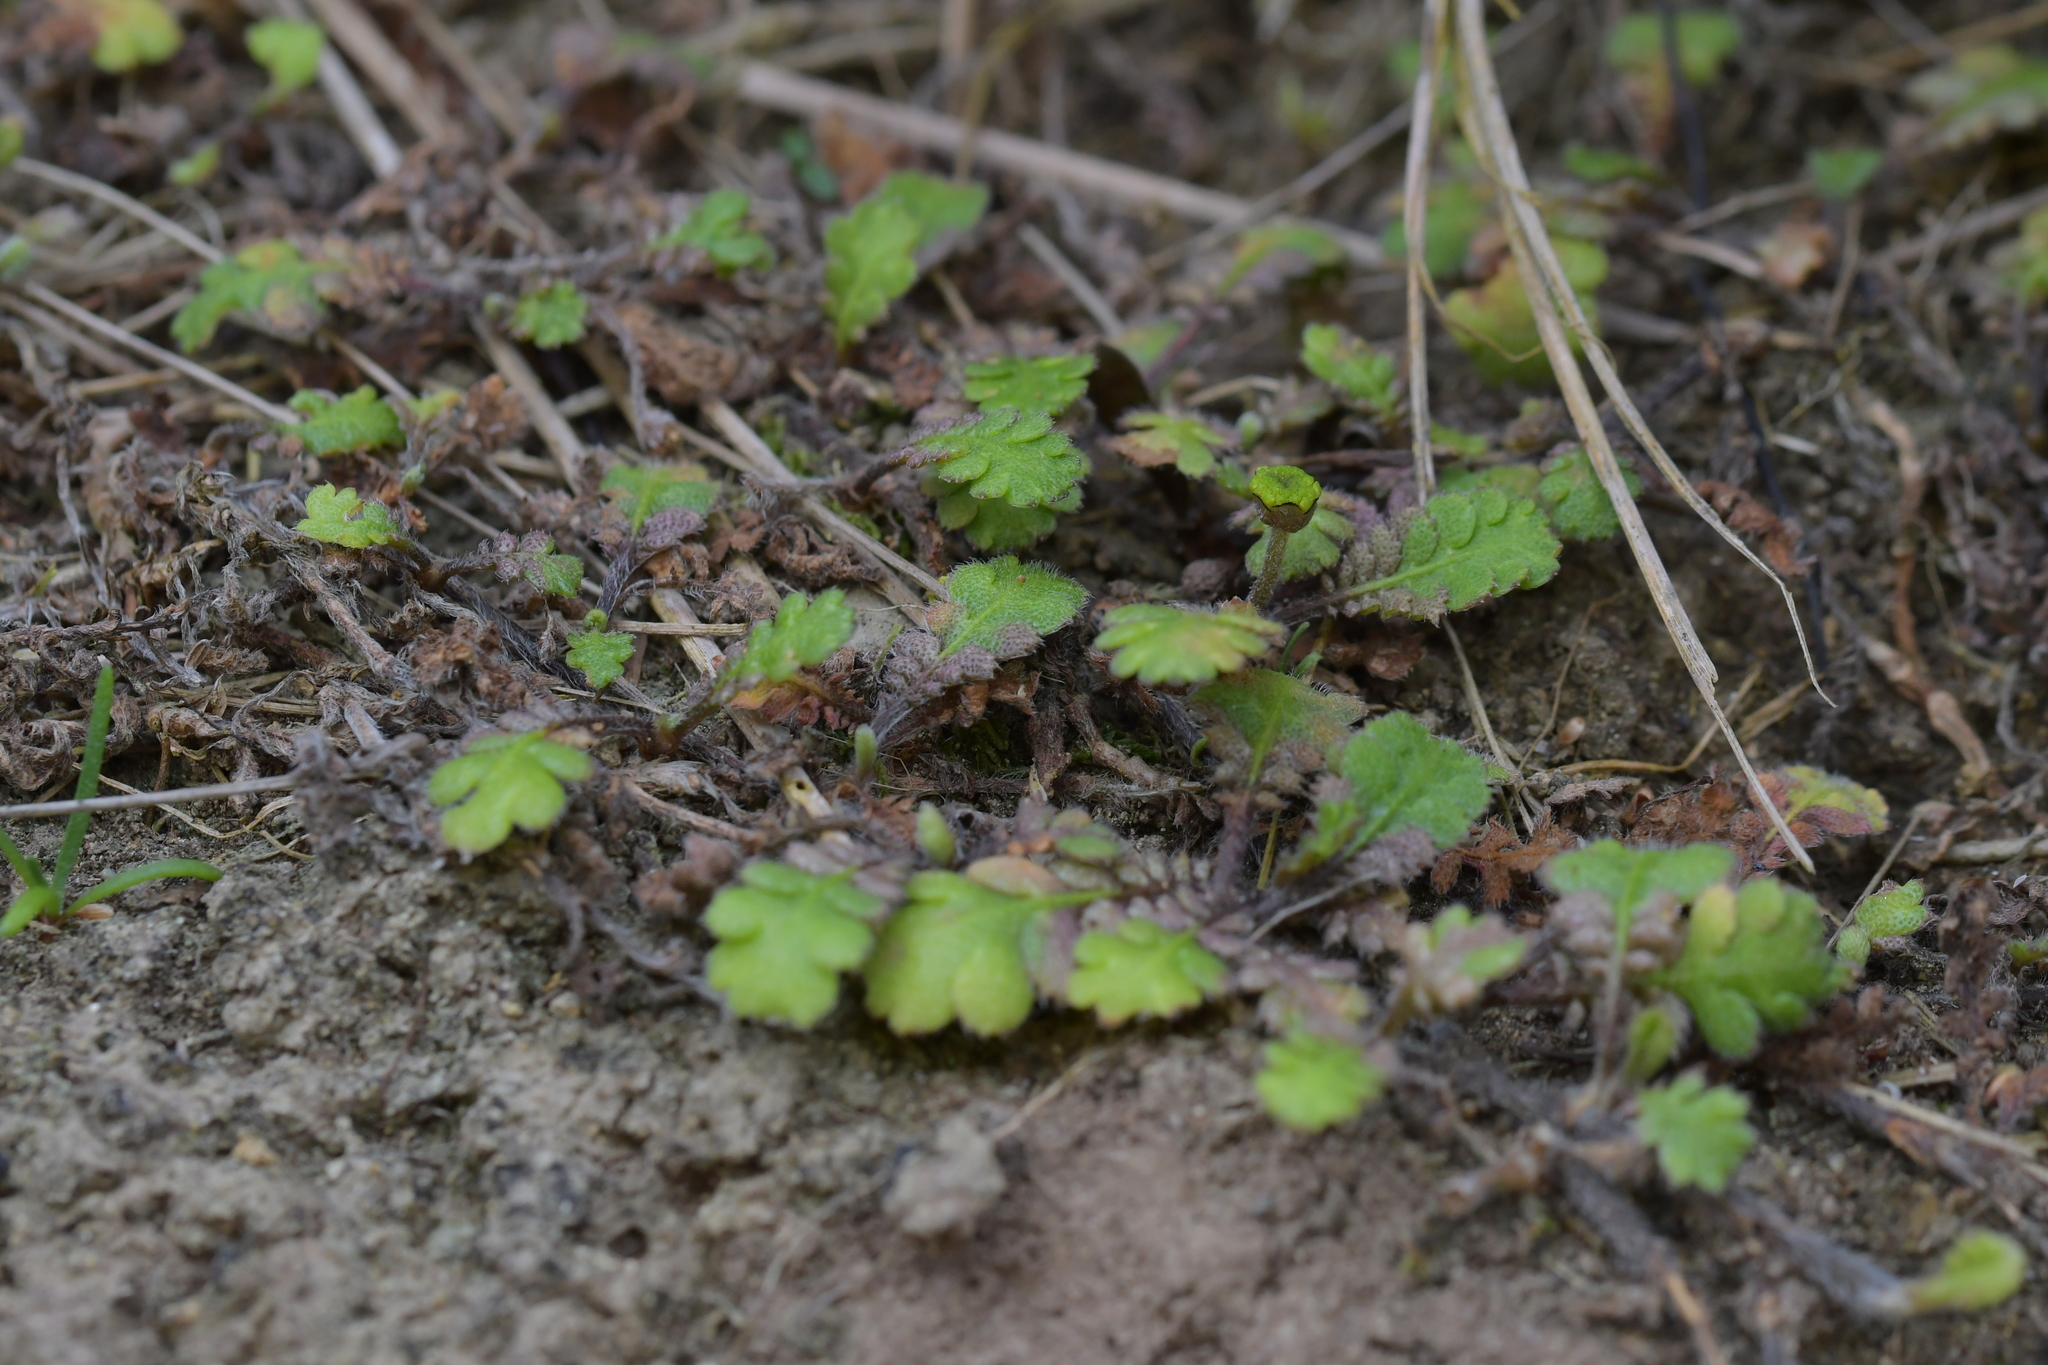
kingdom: Plantae
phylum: Tracheophyta
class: Magnoliopsida
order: Asterales
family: Asteraceae
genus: Leptinella
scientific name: Leptinella squalida
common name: New zealand brass-buttons
